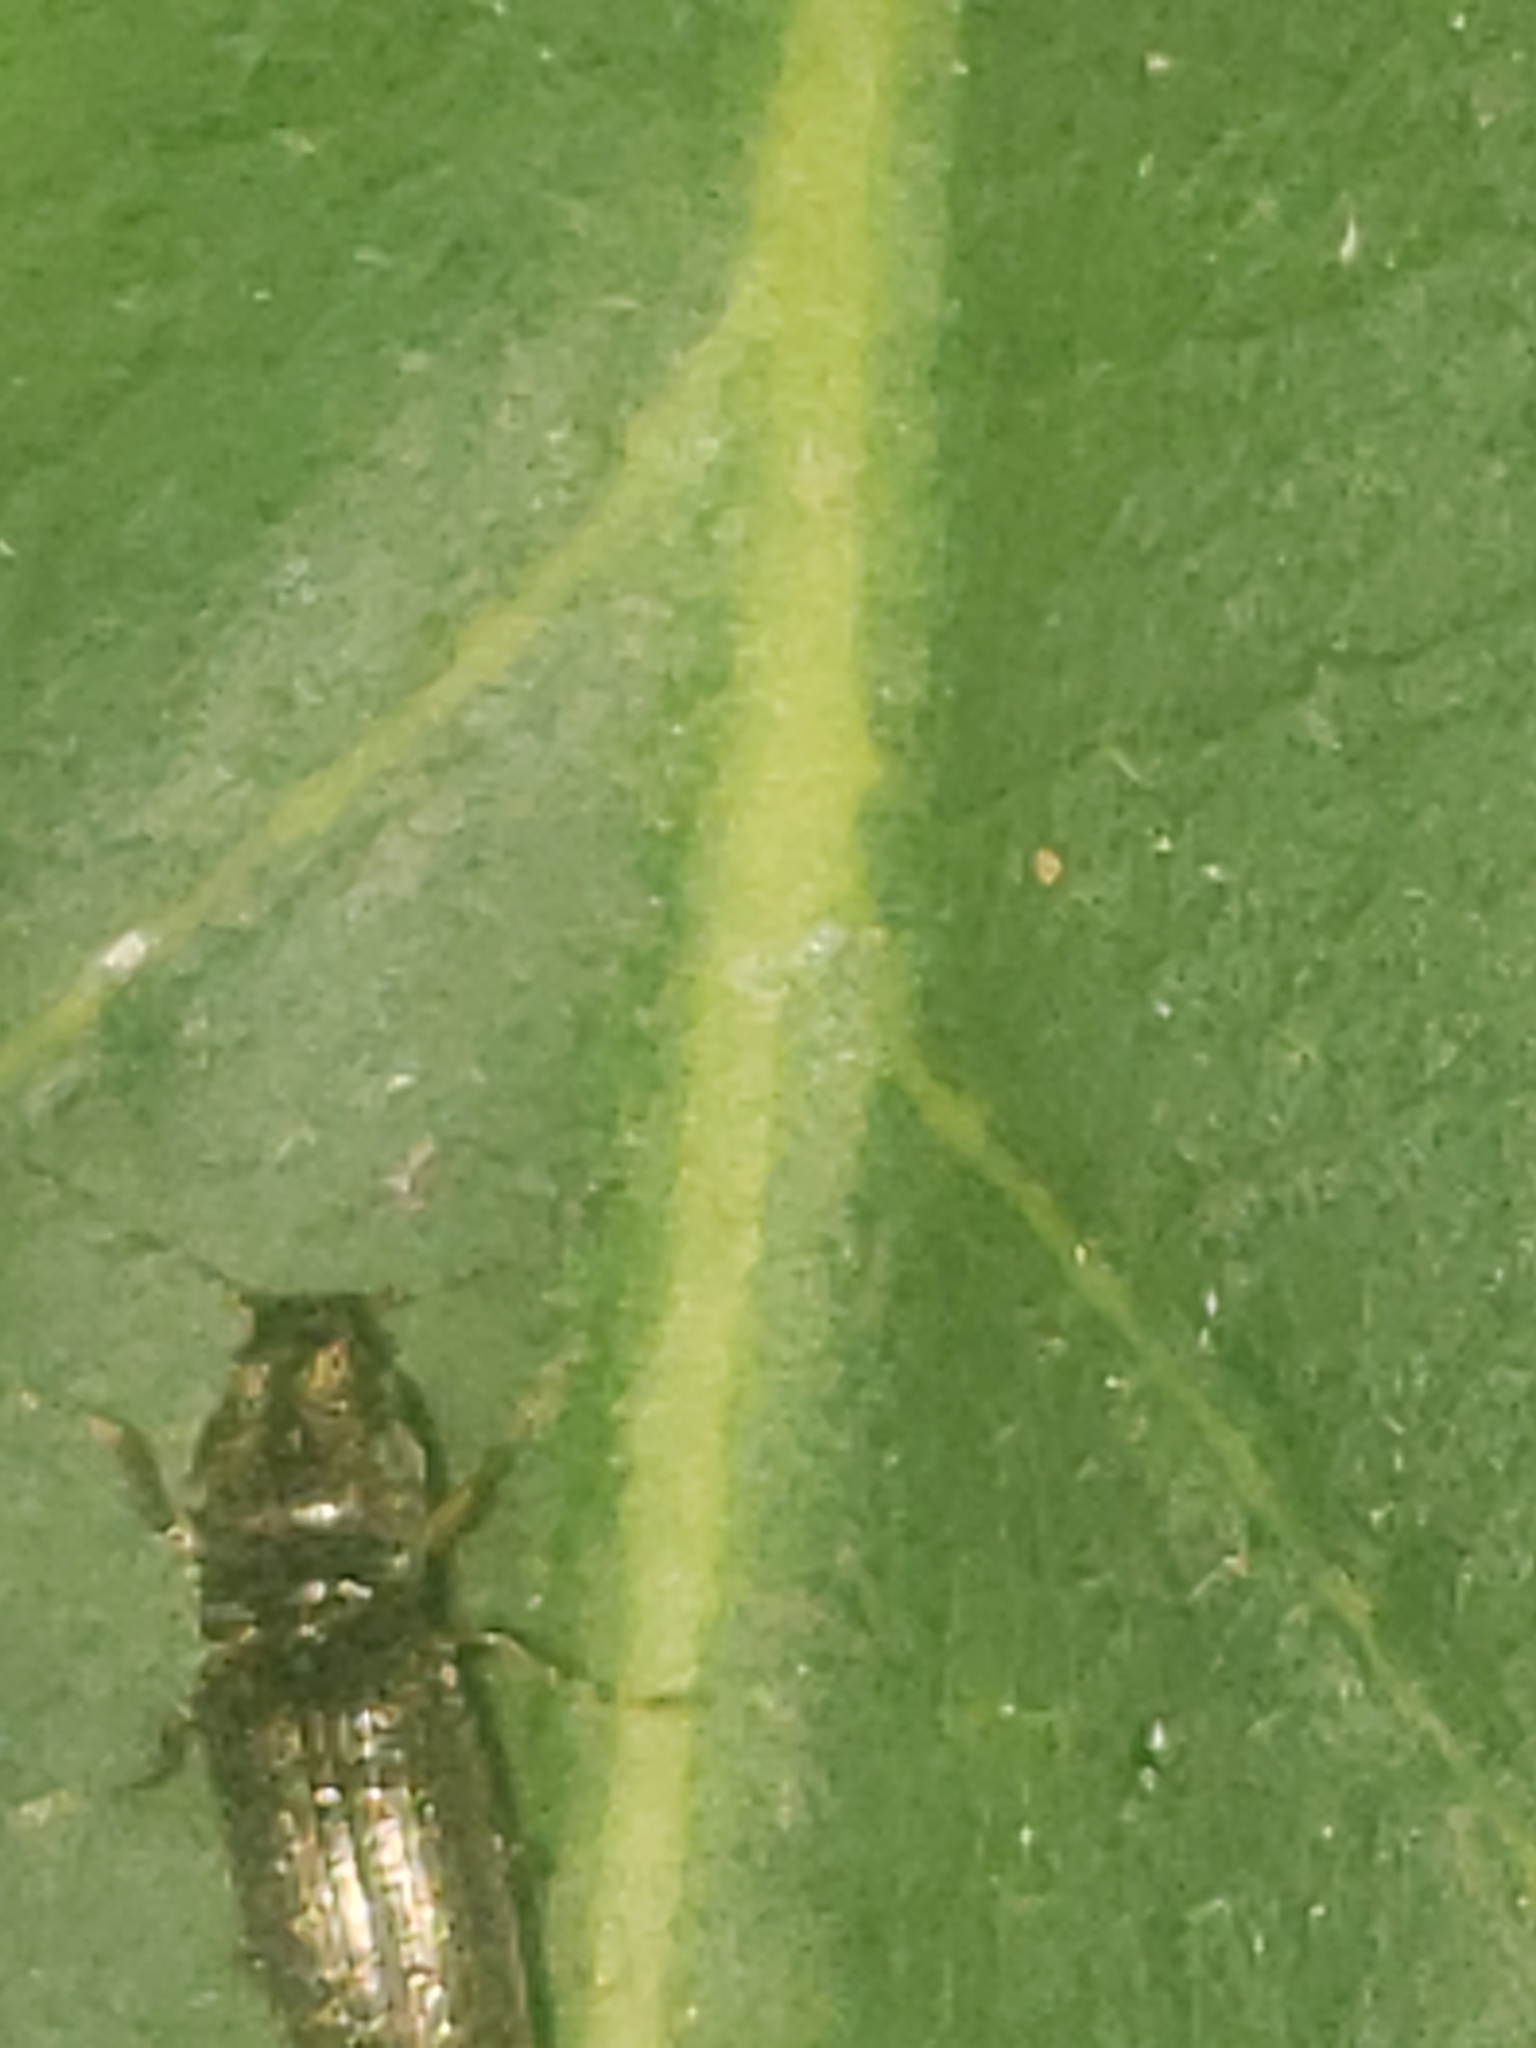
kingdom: Animalia
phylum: Arthropoda
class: Insecta
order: Coleoptera
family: Elateridae
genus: Limonius
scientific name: Limonius quercinus
